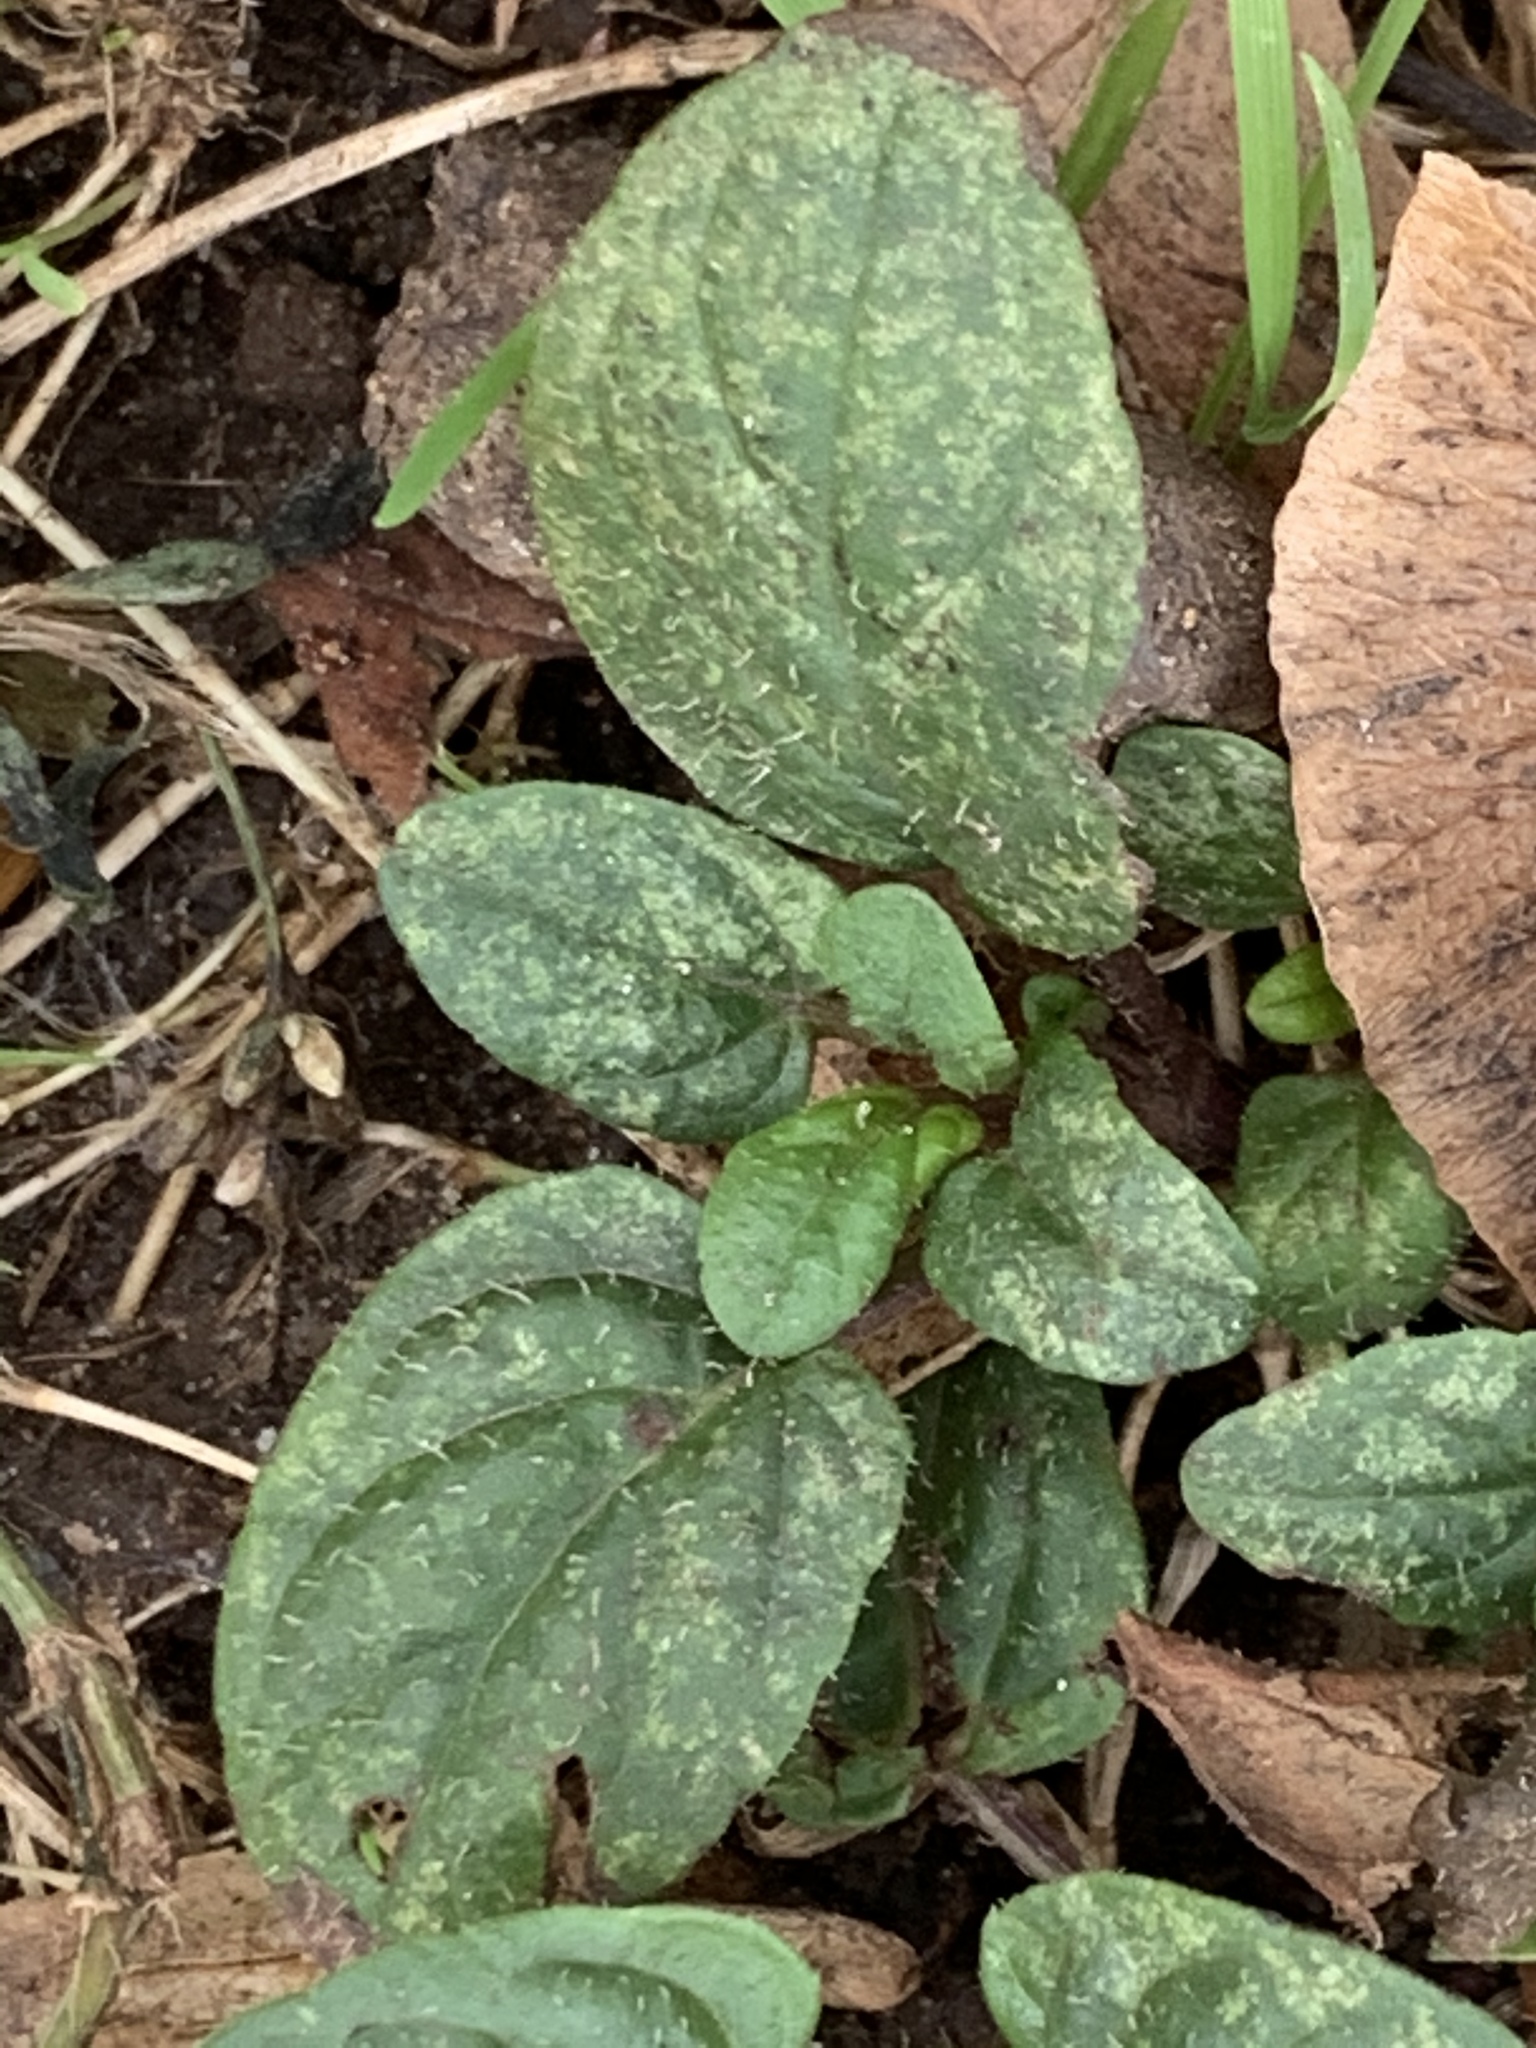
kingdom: Plantae
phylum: Tracheophyta
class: Magnoliopsida
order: Lamiales
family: Lamiaceae
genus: Prunella
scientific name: Prunella vulgaris
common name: Heal-all
